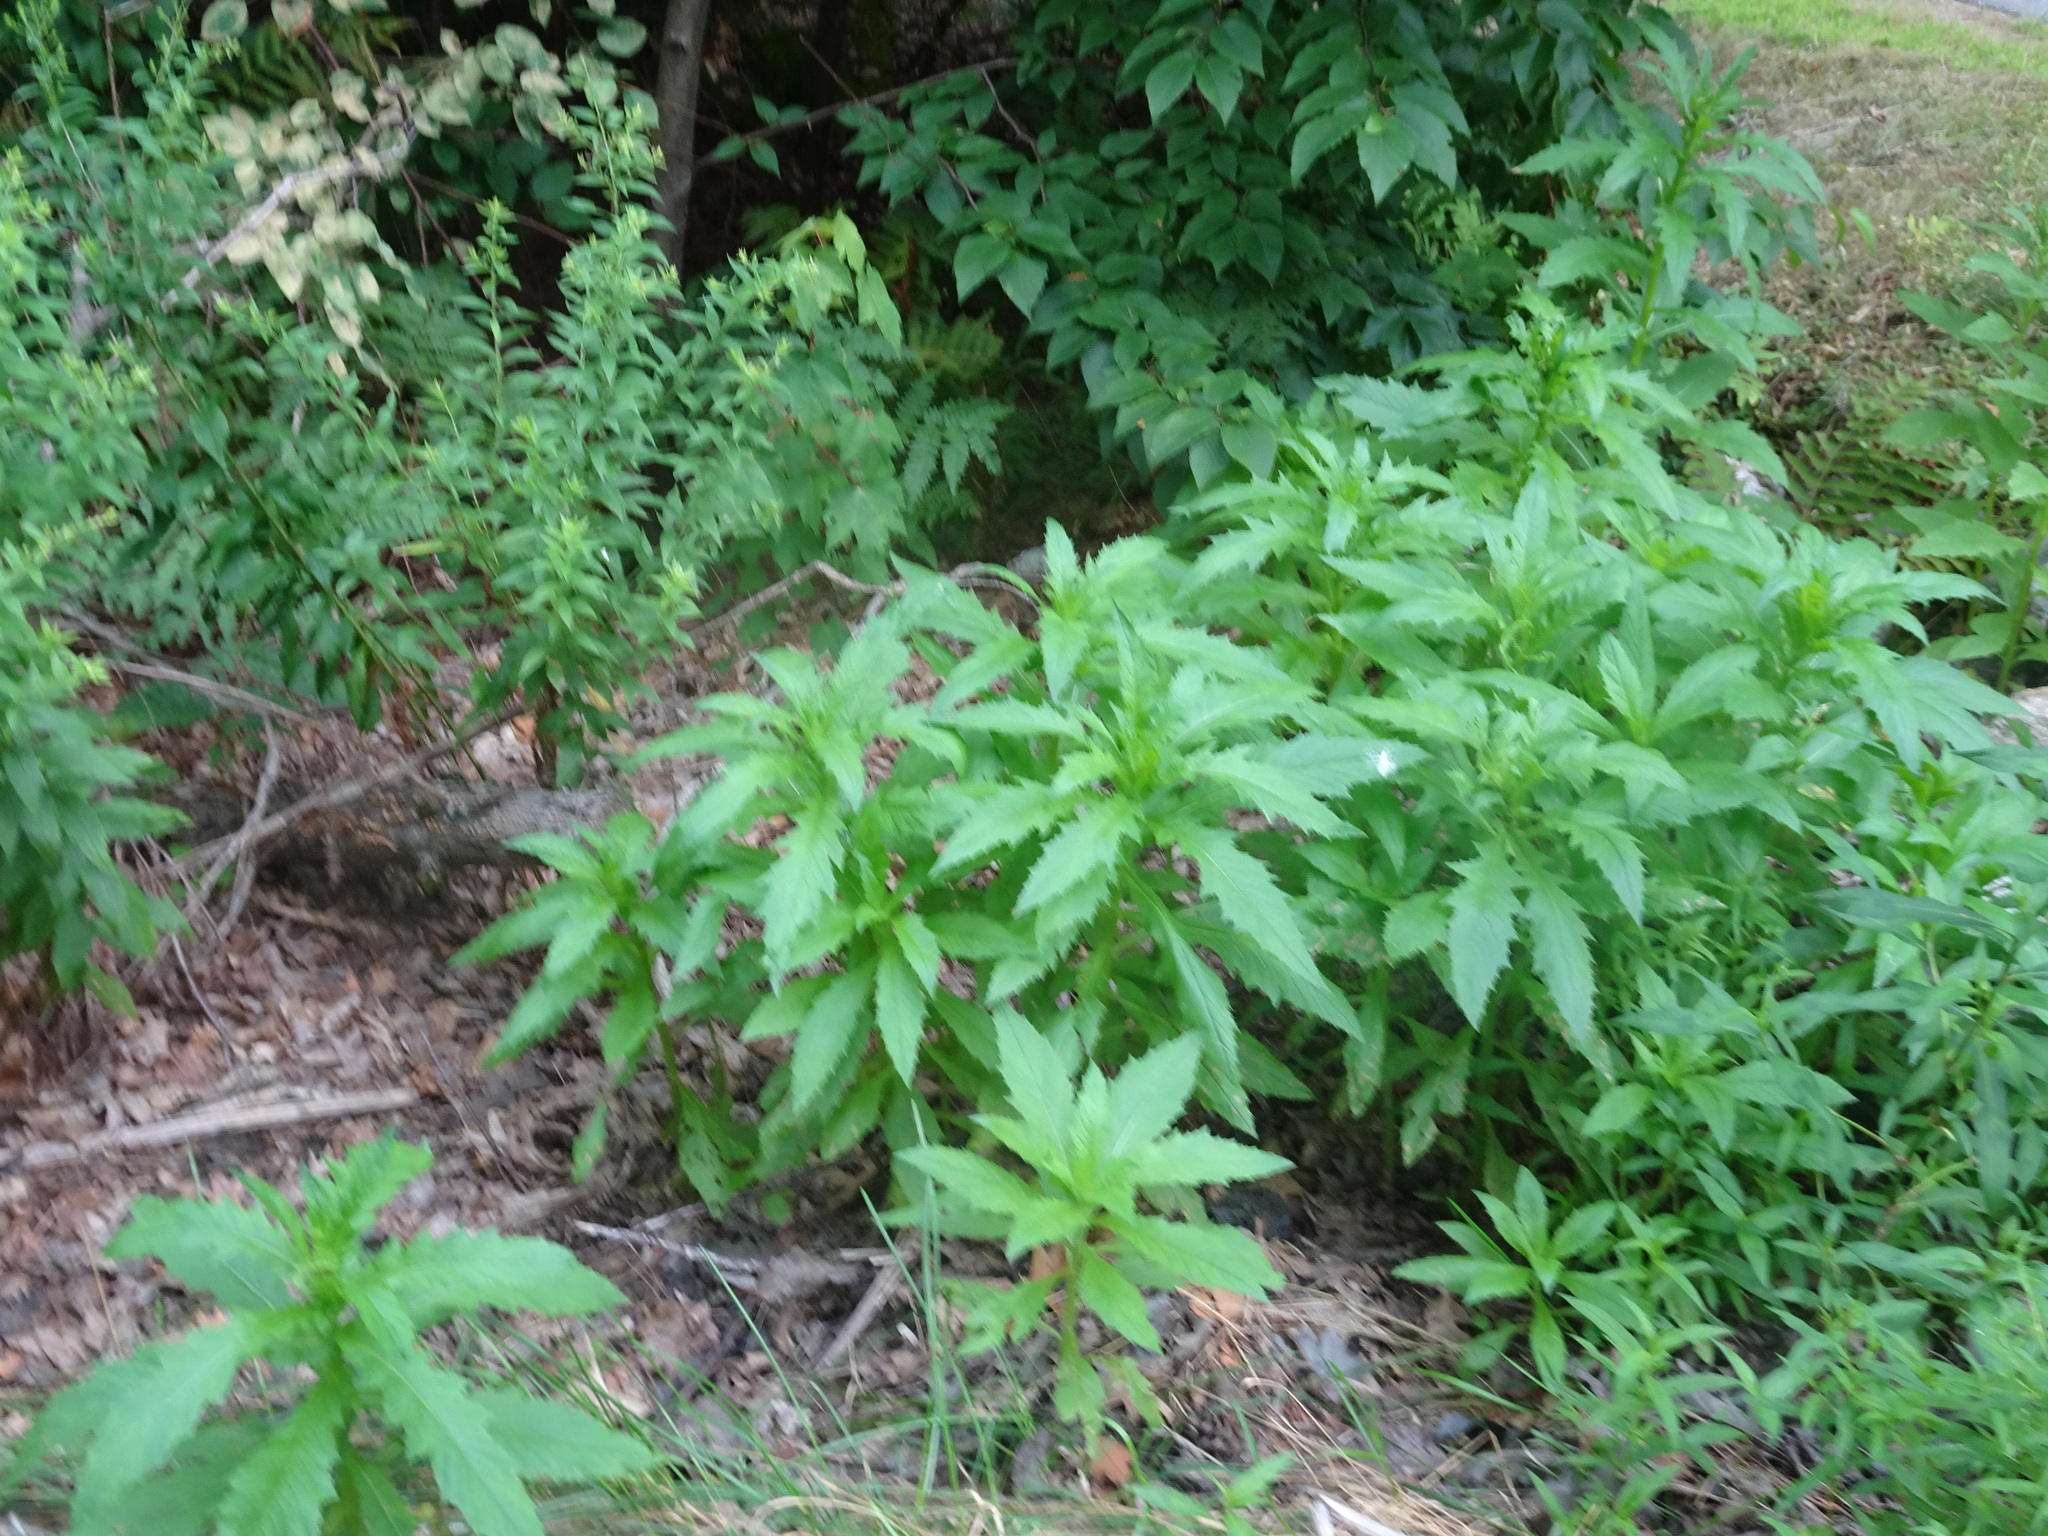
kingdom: Plantae
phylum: Tracheophyta
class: Magnoliopsida
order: Asterales
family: Asteraceae
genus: Erechtites
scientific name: Erechtites hieraciifolius
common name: American burnweed
